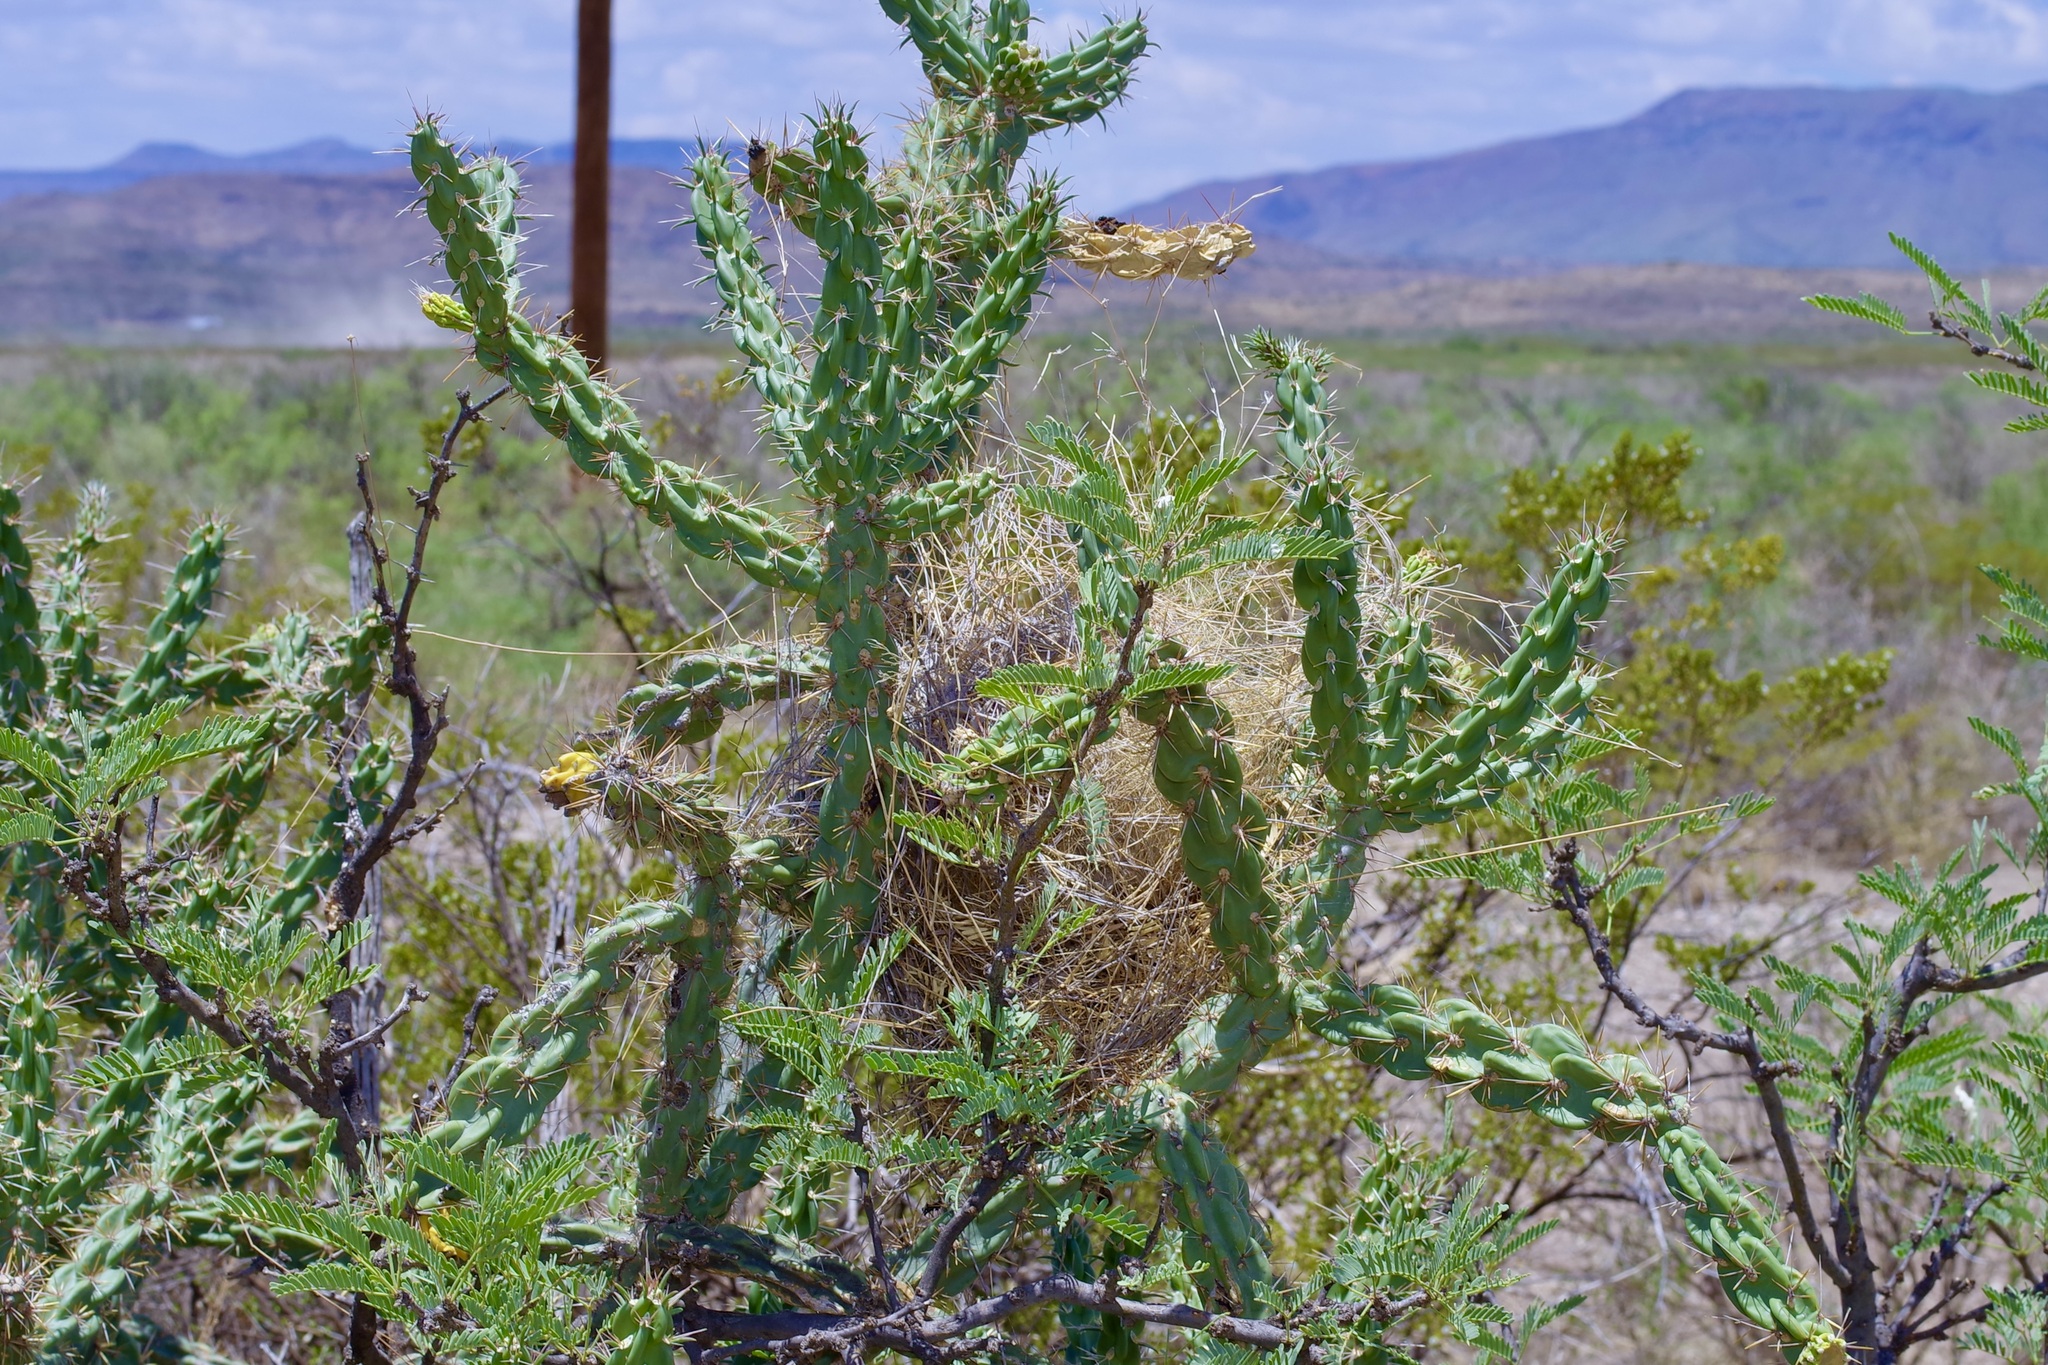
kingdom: Plantae
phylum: Tracheophyta
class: Magnoliopsida
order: Caryophyllales
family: Cactaceae
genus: Cylindropuntia
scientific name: Cylindropuntia imbricata
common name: Candelabrum cactus
